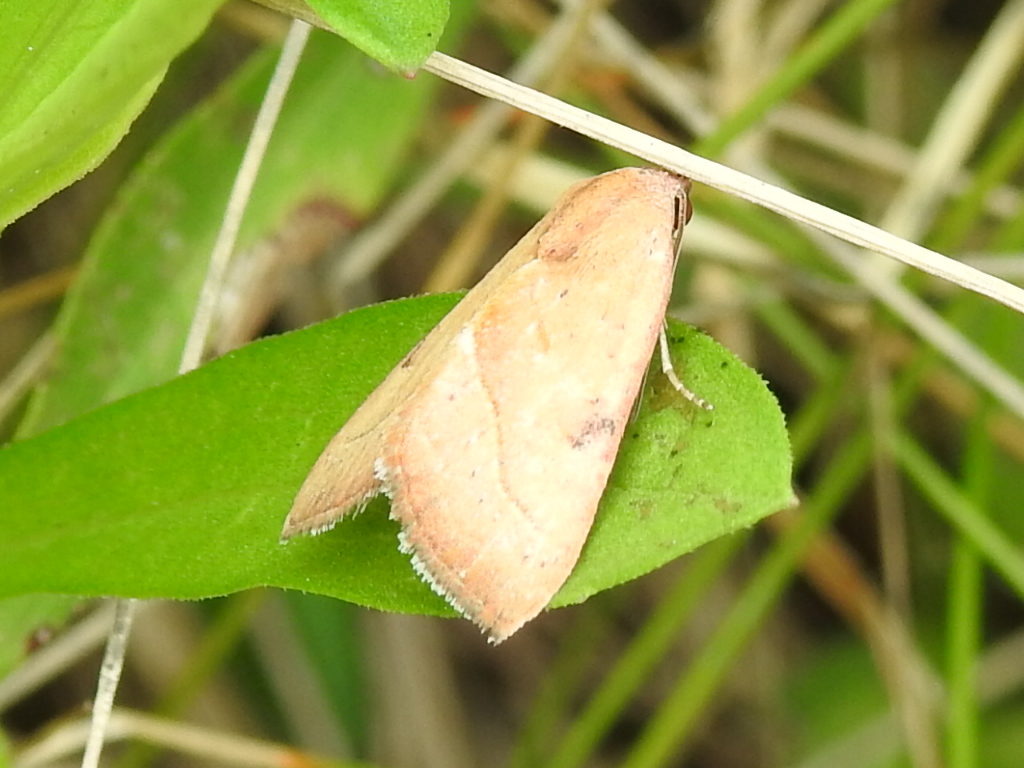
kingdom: Animalia
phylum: Arthropoda
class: Insecta
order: Lepidoptera
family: Noctuidae
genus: Galgula
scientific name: Galgula partita
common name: Wedgeling
